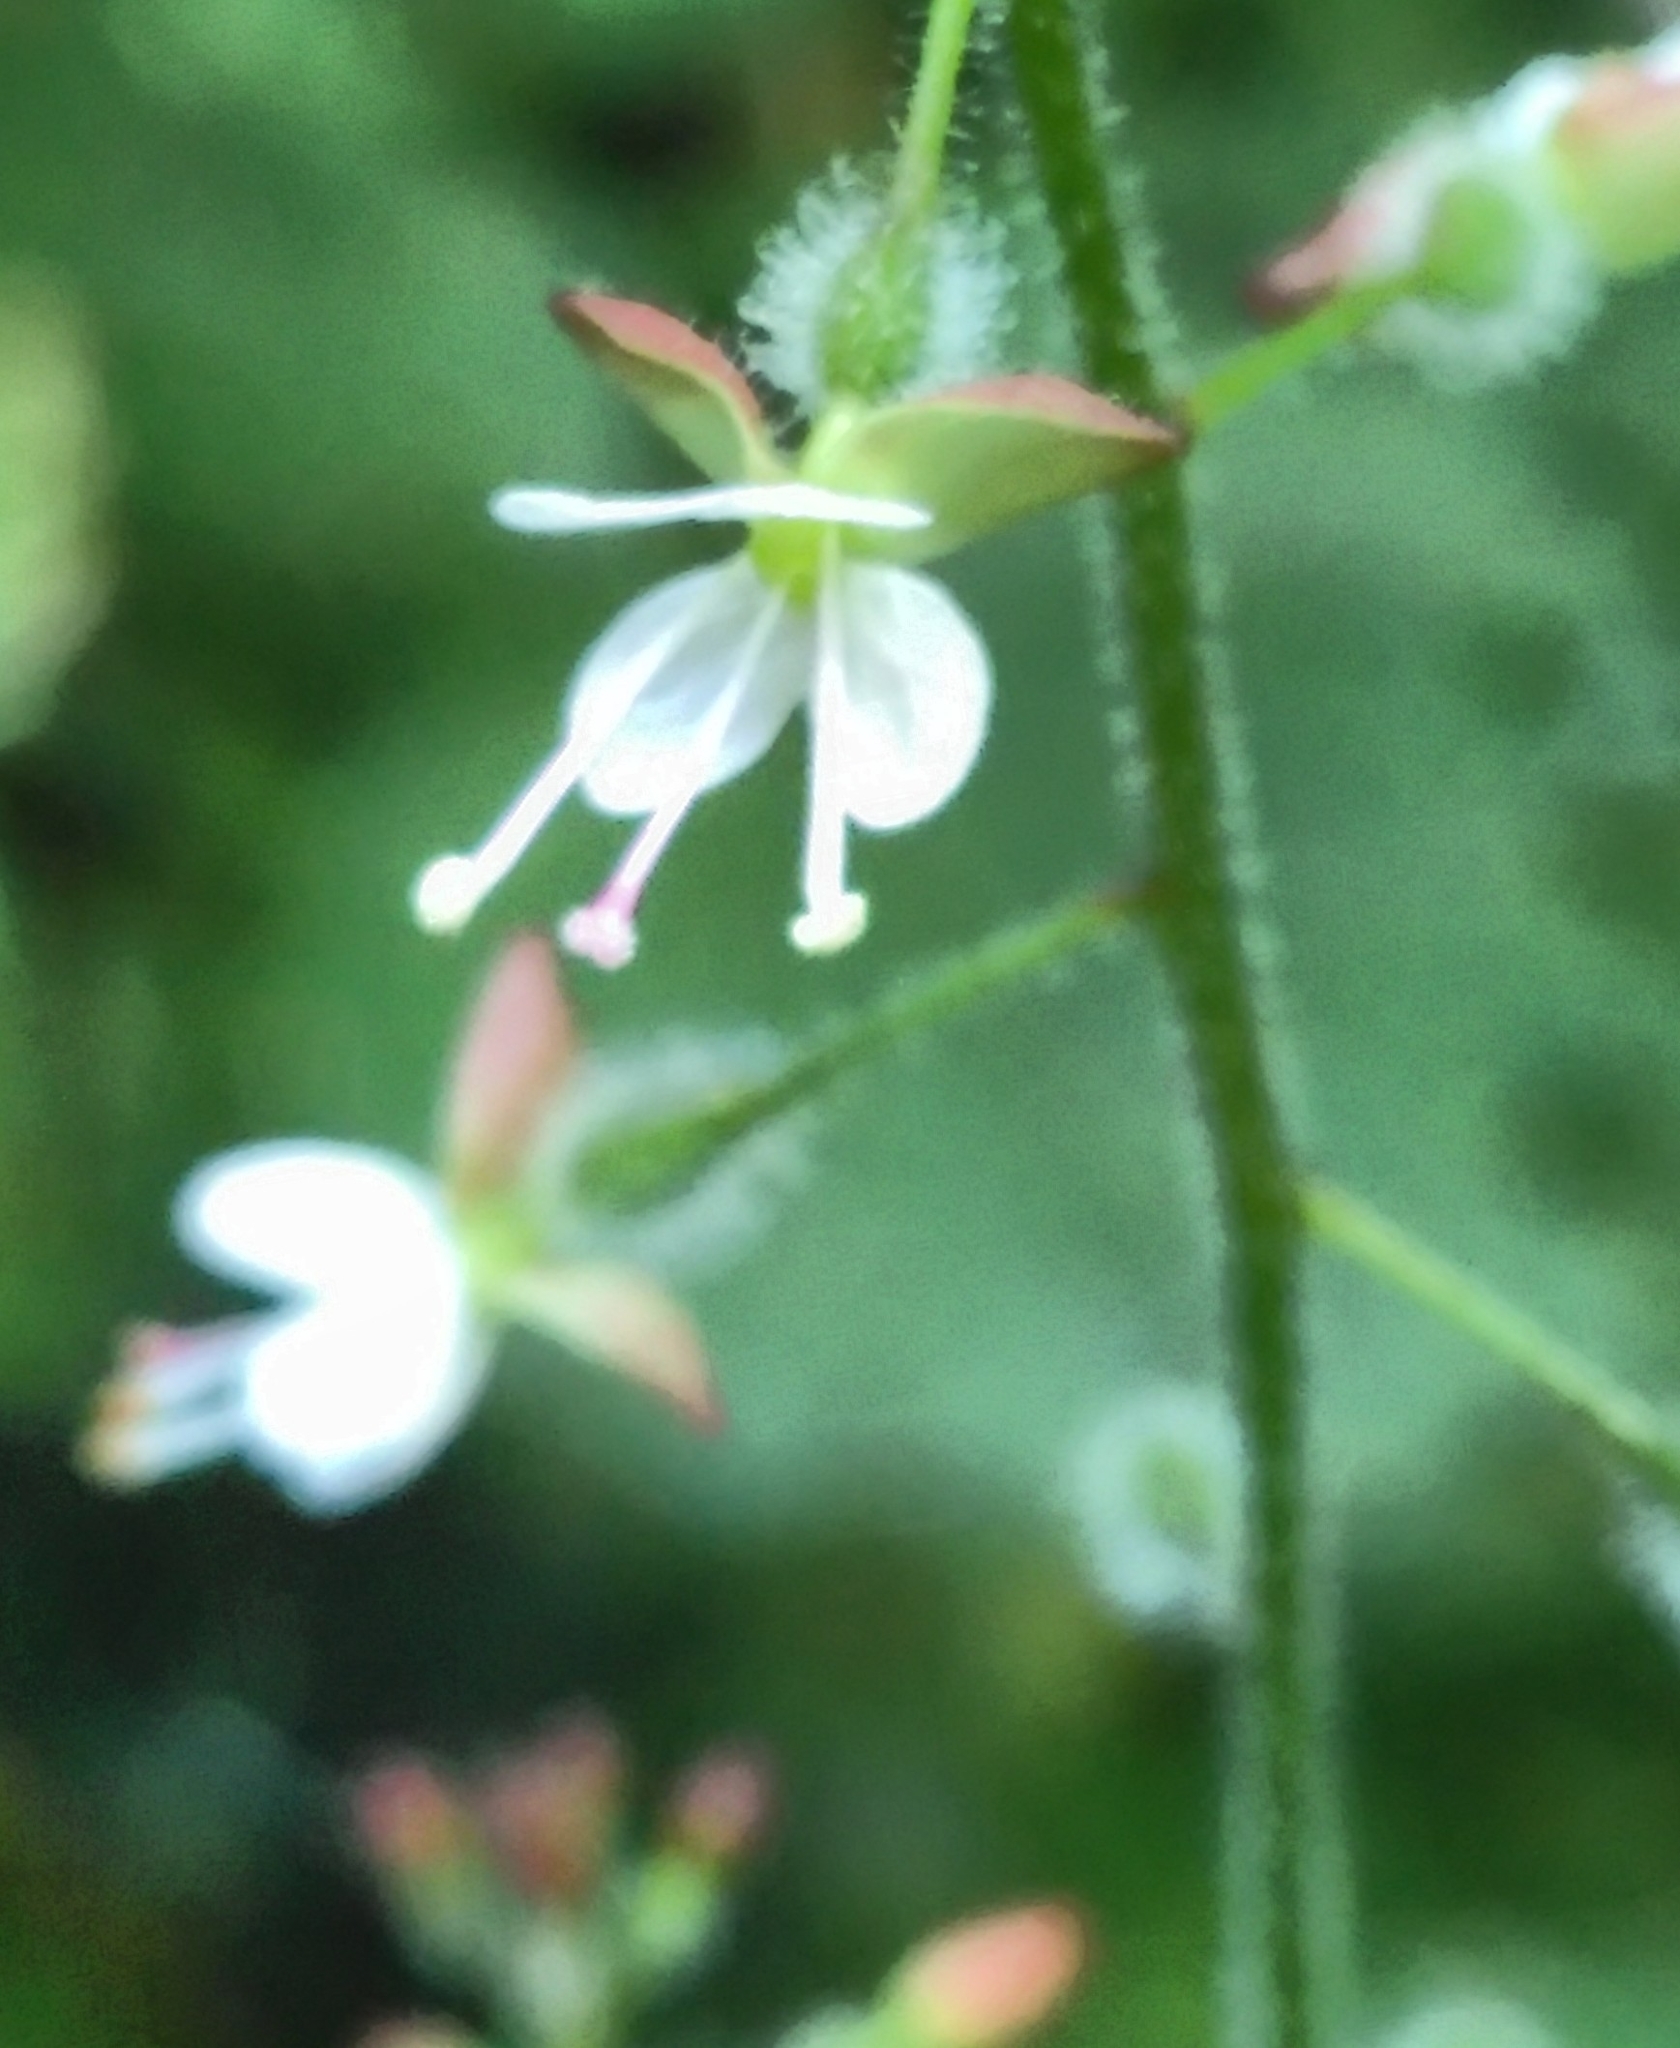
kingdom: Plantae
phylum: Tracheophyta
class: Magnoliopsida
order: Myrtales
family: Onagraceae
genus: Circaea
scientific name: Circaea lutetiana
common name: Enchanter's-nightshade
